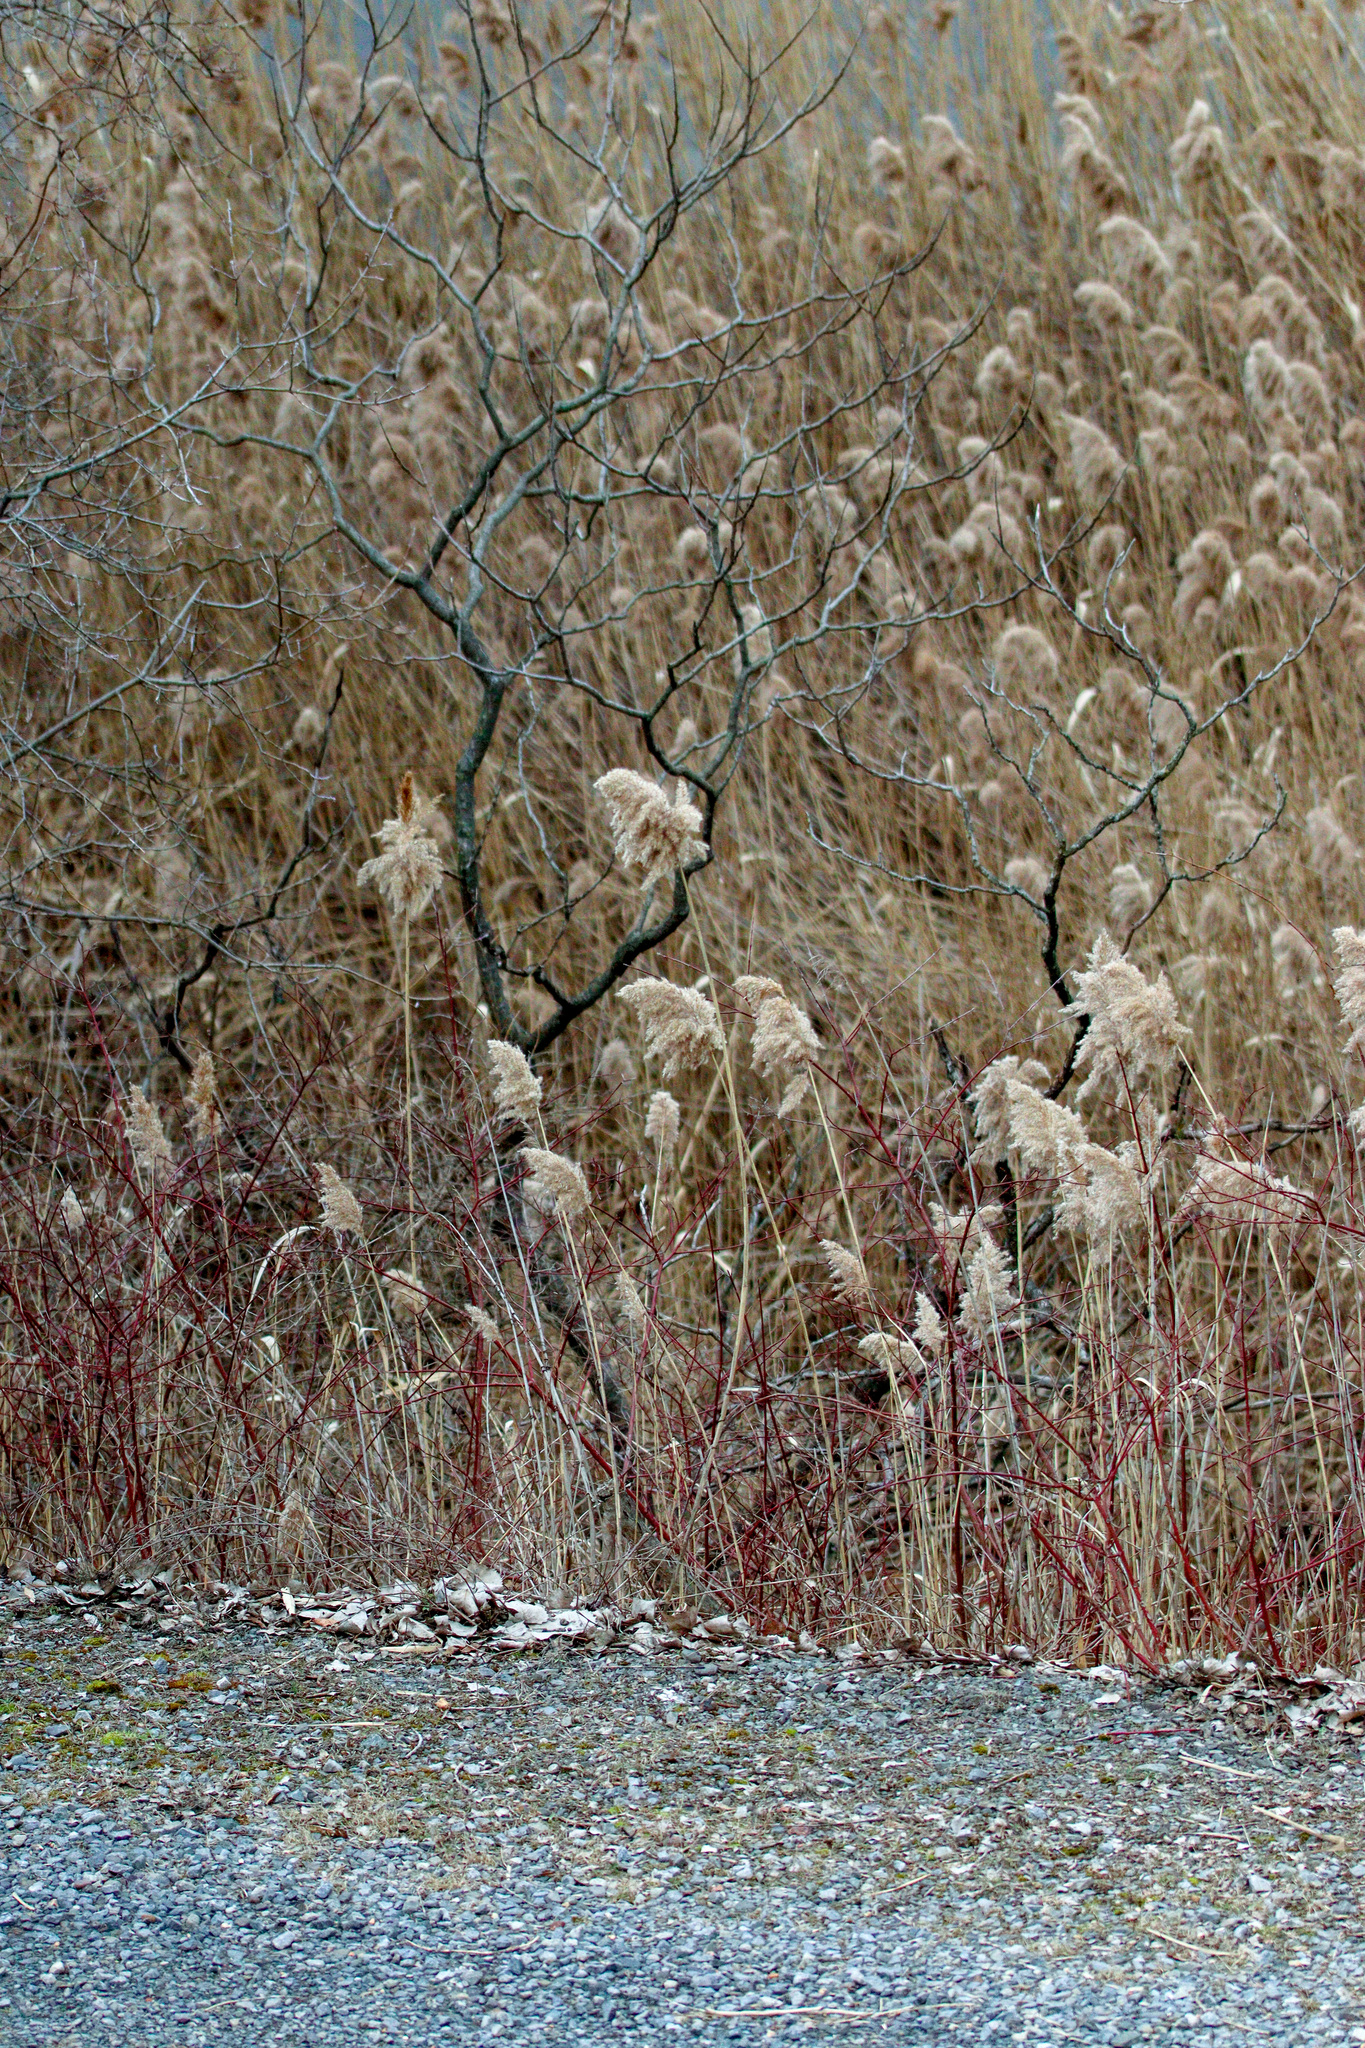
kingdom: Plantae
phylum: Tracheophyta
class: Liliopsida
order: Poales
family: Poaceae
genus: Phragmites
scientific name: Phragmites australis
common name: Common reed
